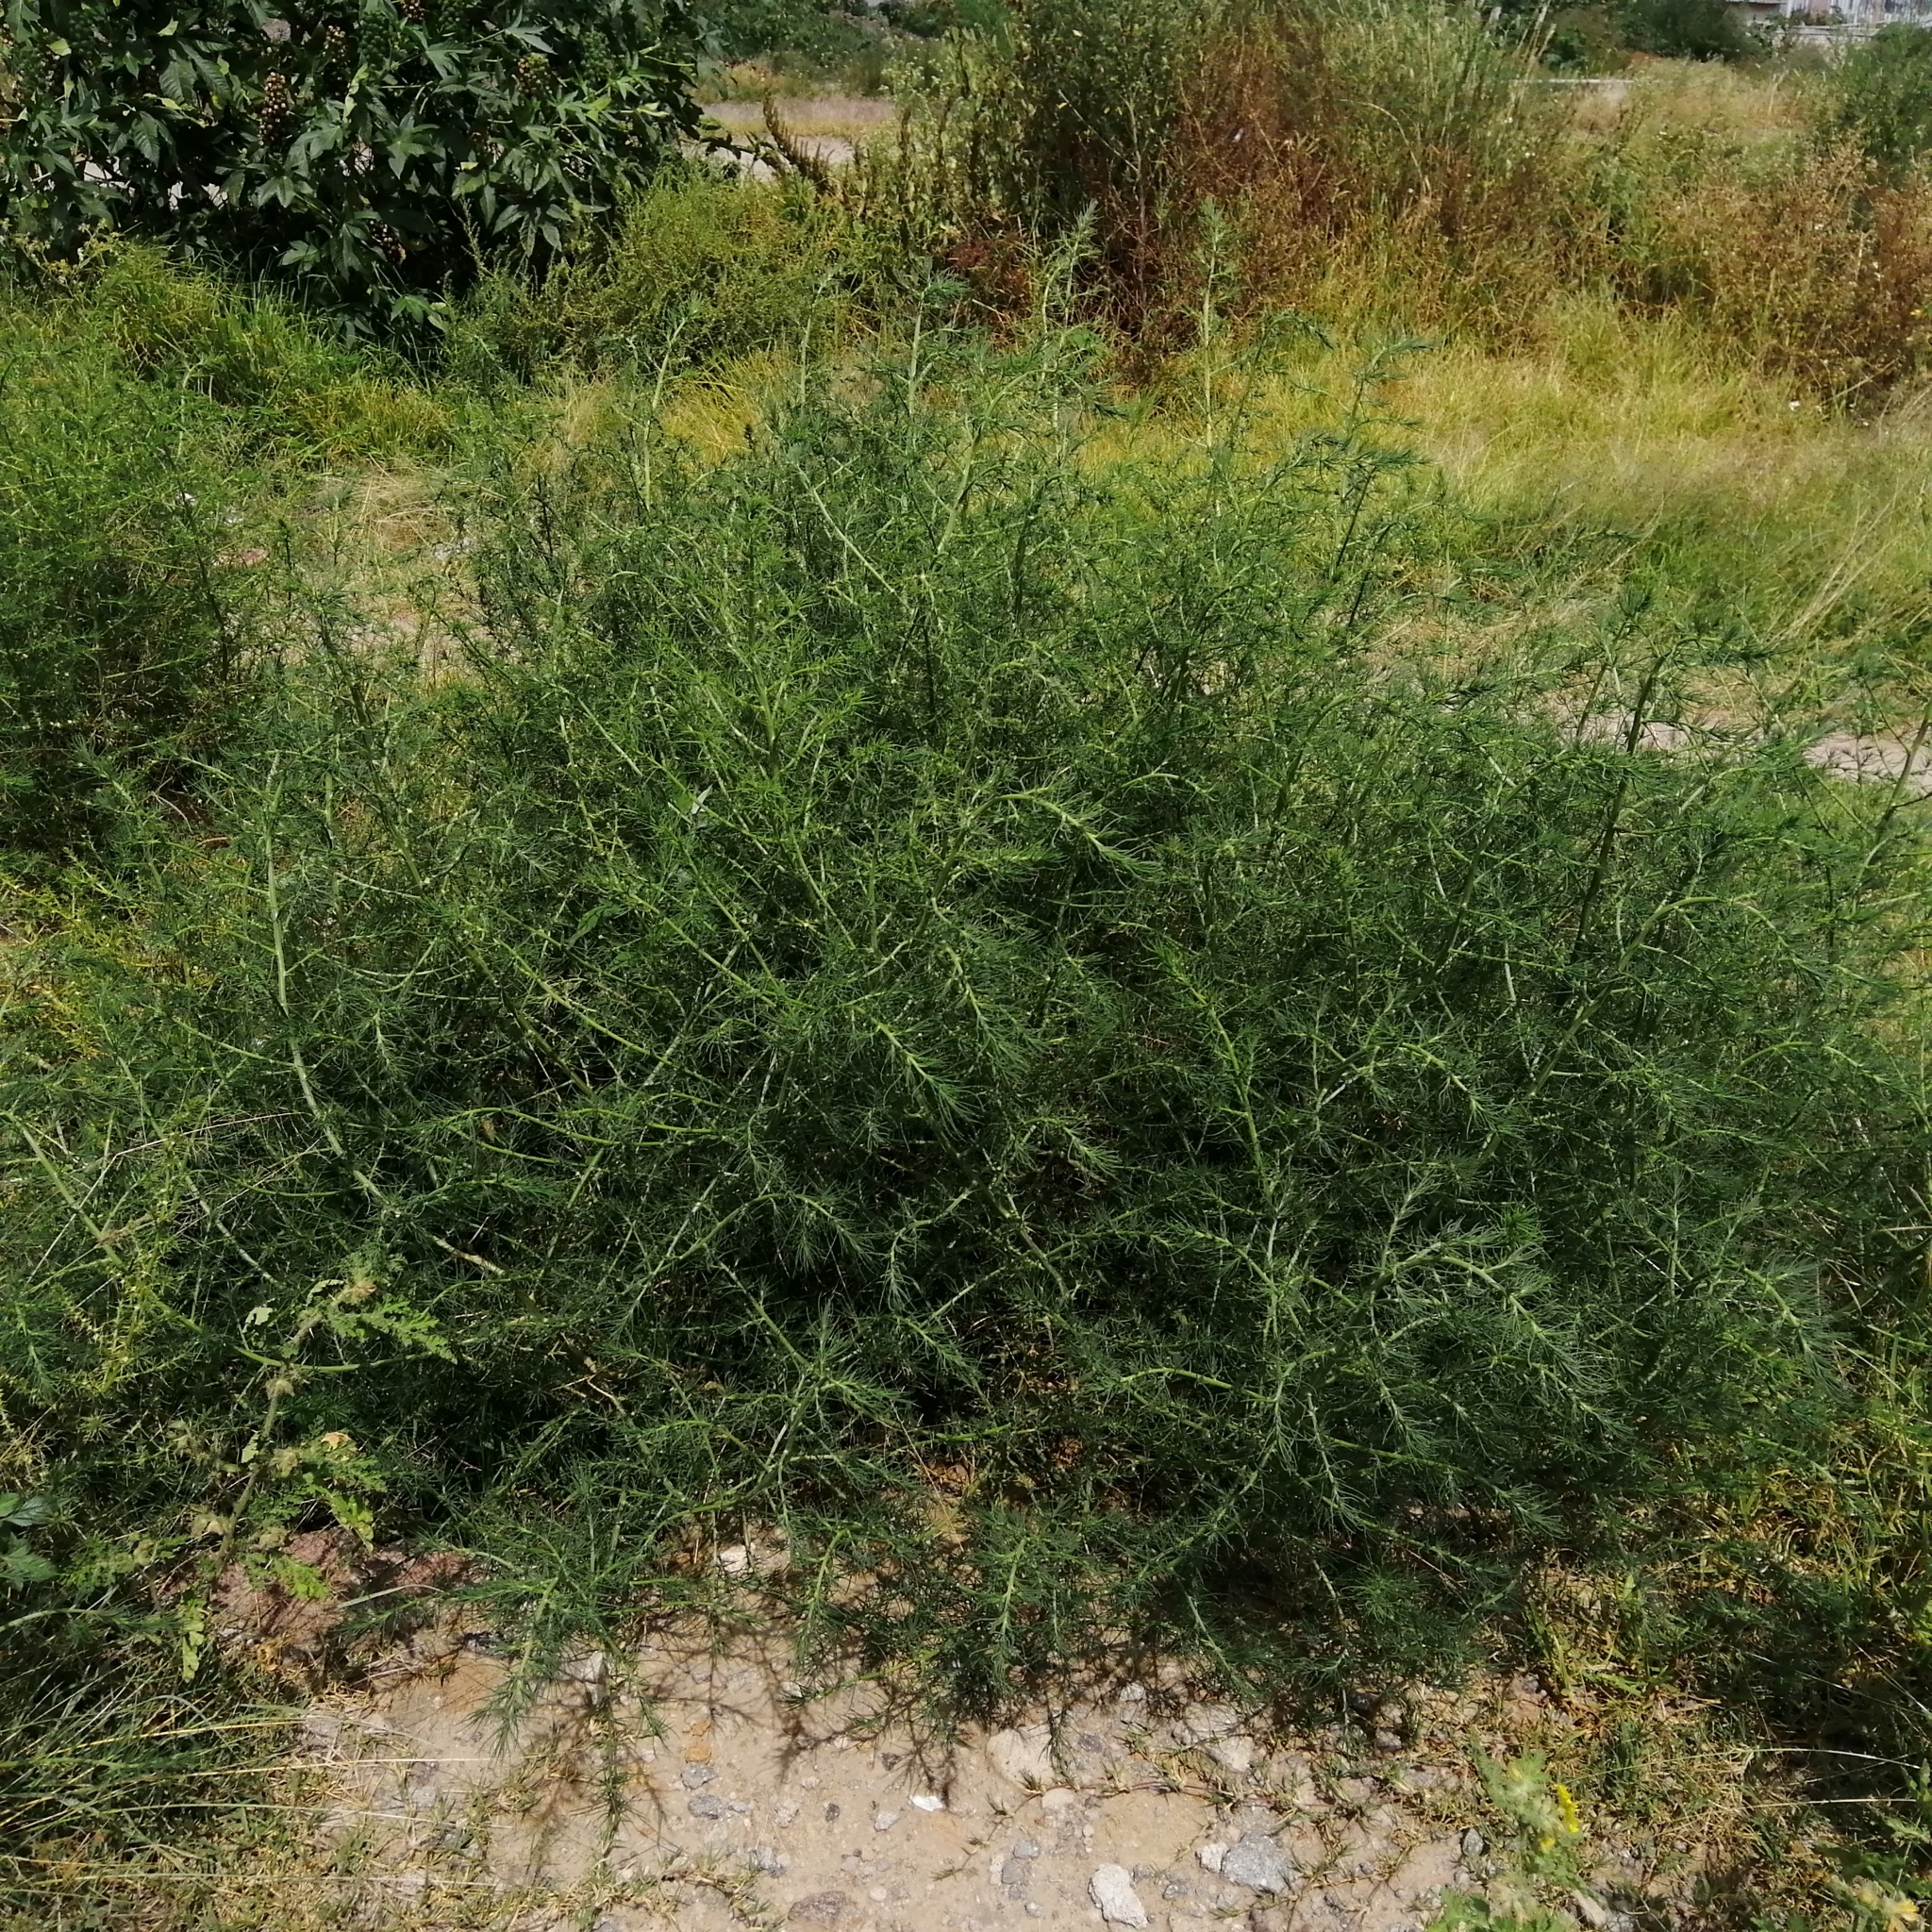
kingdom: Plantae
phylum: Tracheophyta
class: Magnoliopsida
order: Caryophyllales
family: Amaranthaceae
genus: Salsola
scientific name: Salsola kali
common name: Saltwort
